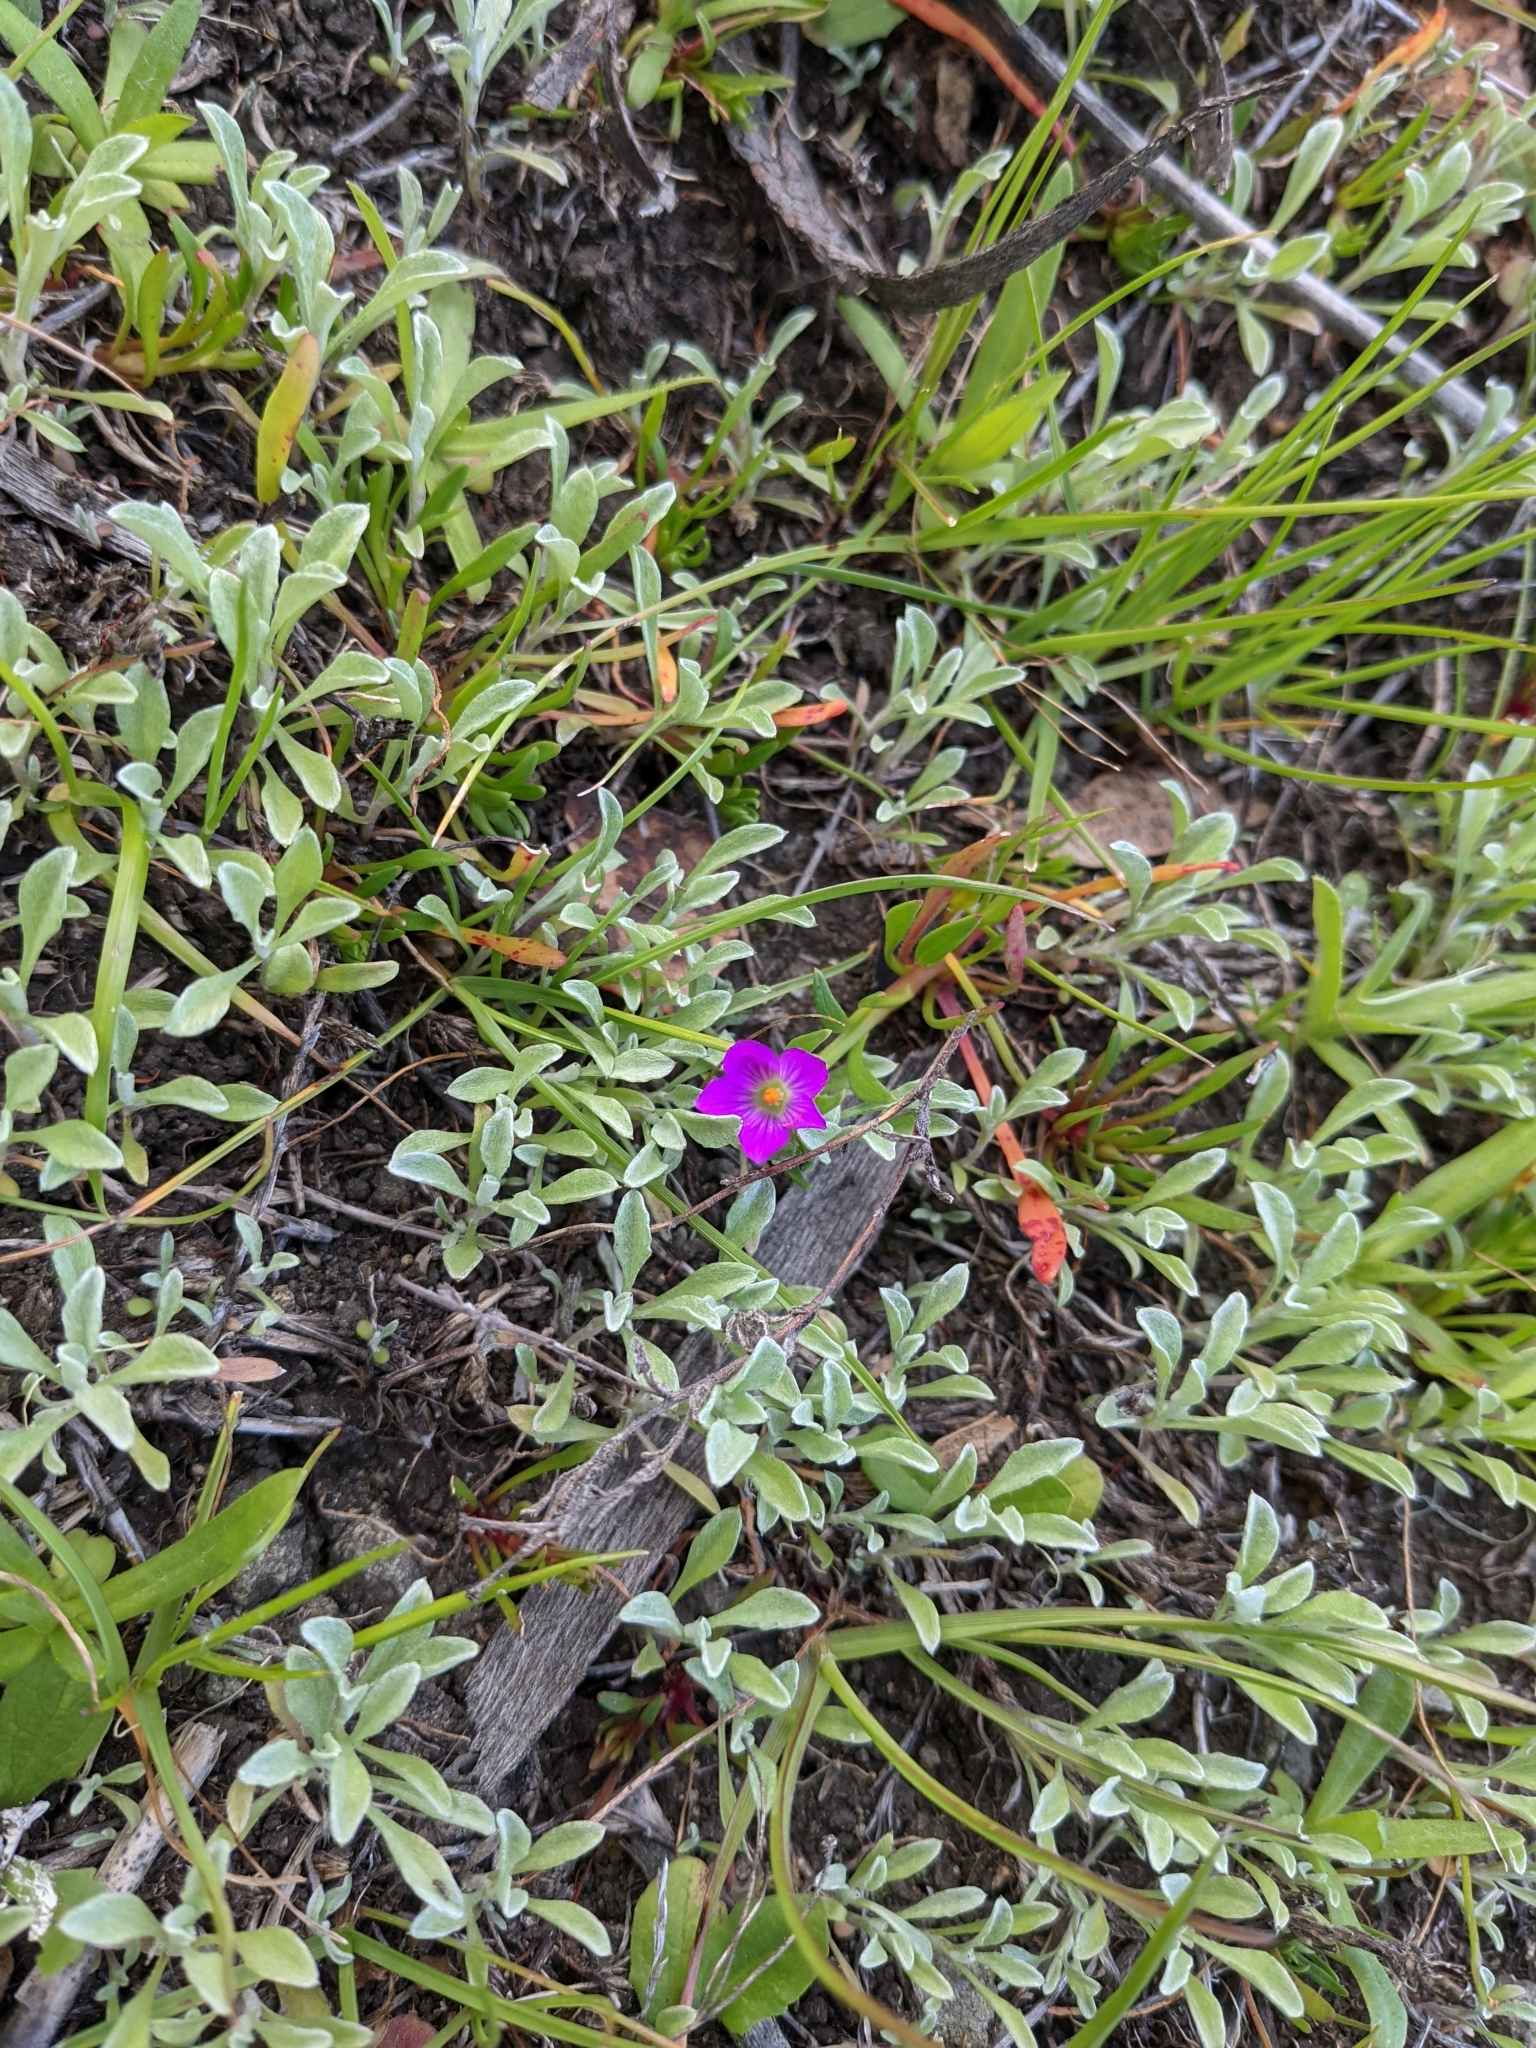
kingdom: Plantae
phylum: Tracheophyta
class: Magnoliopsida
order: Caryophyllales
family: Montiaceae
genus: Calandrinia
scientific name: Calandrinia menziesii
